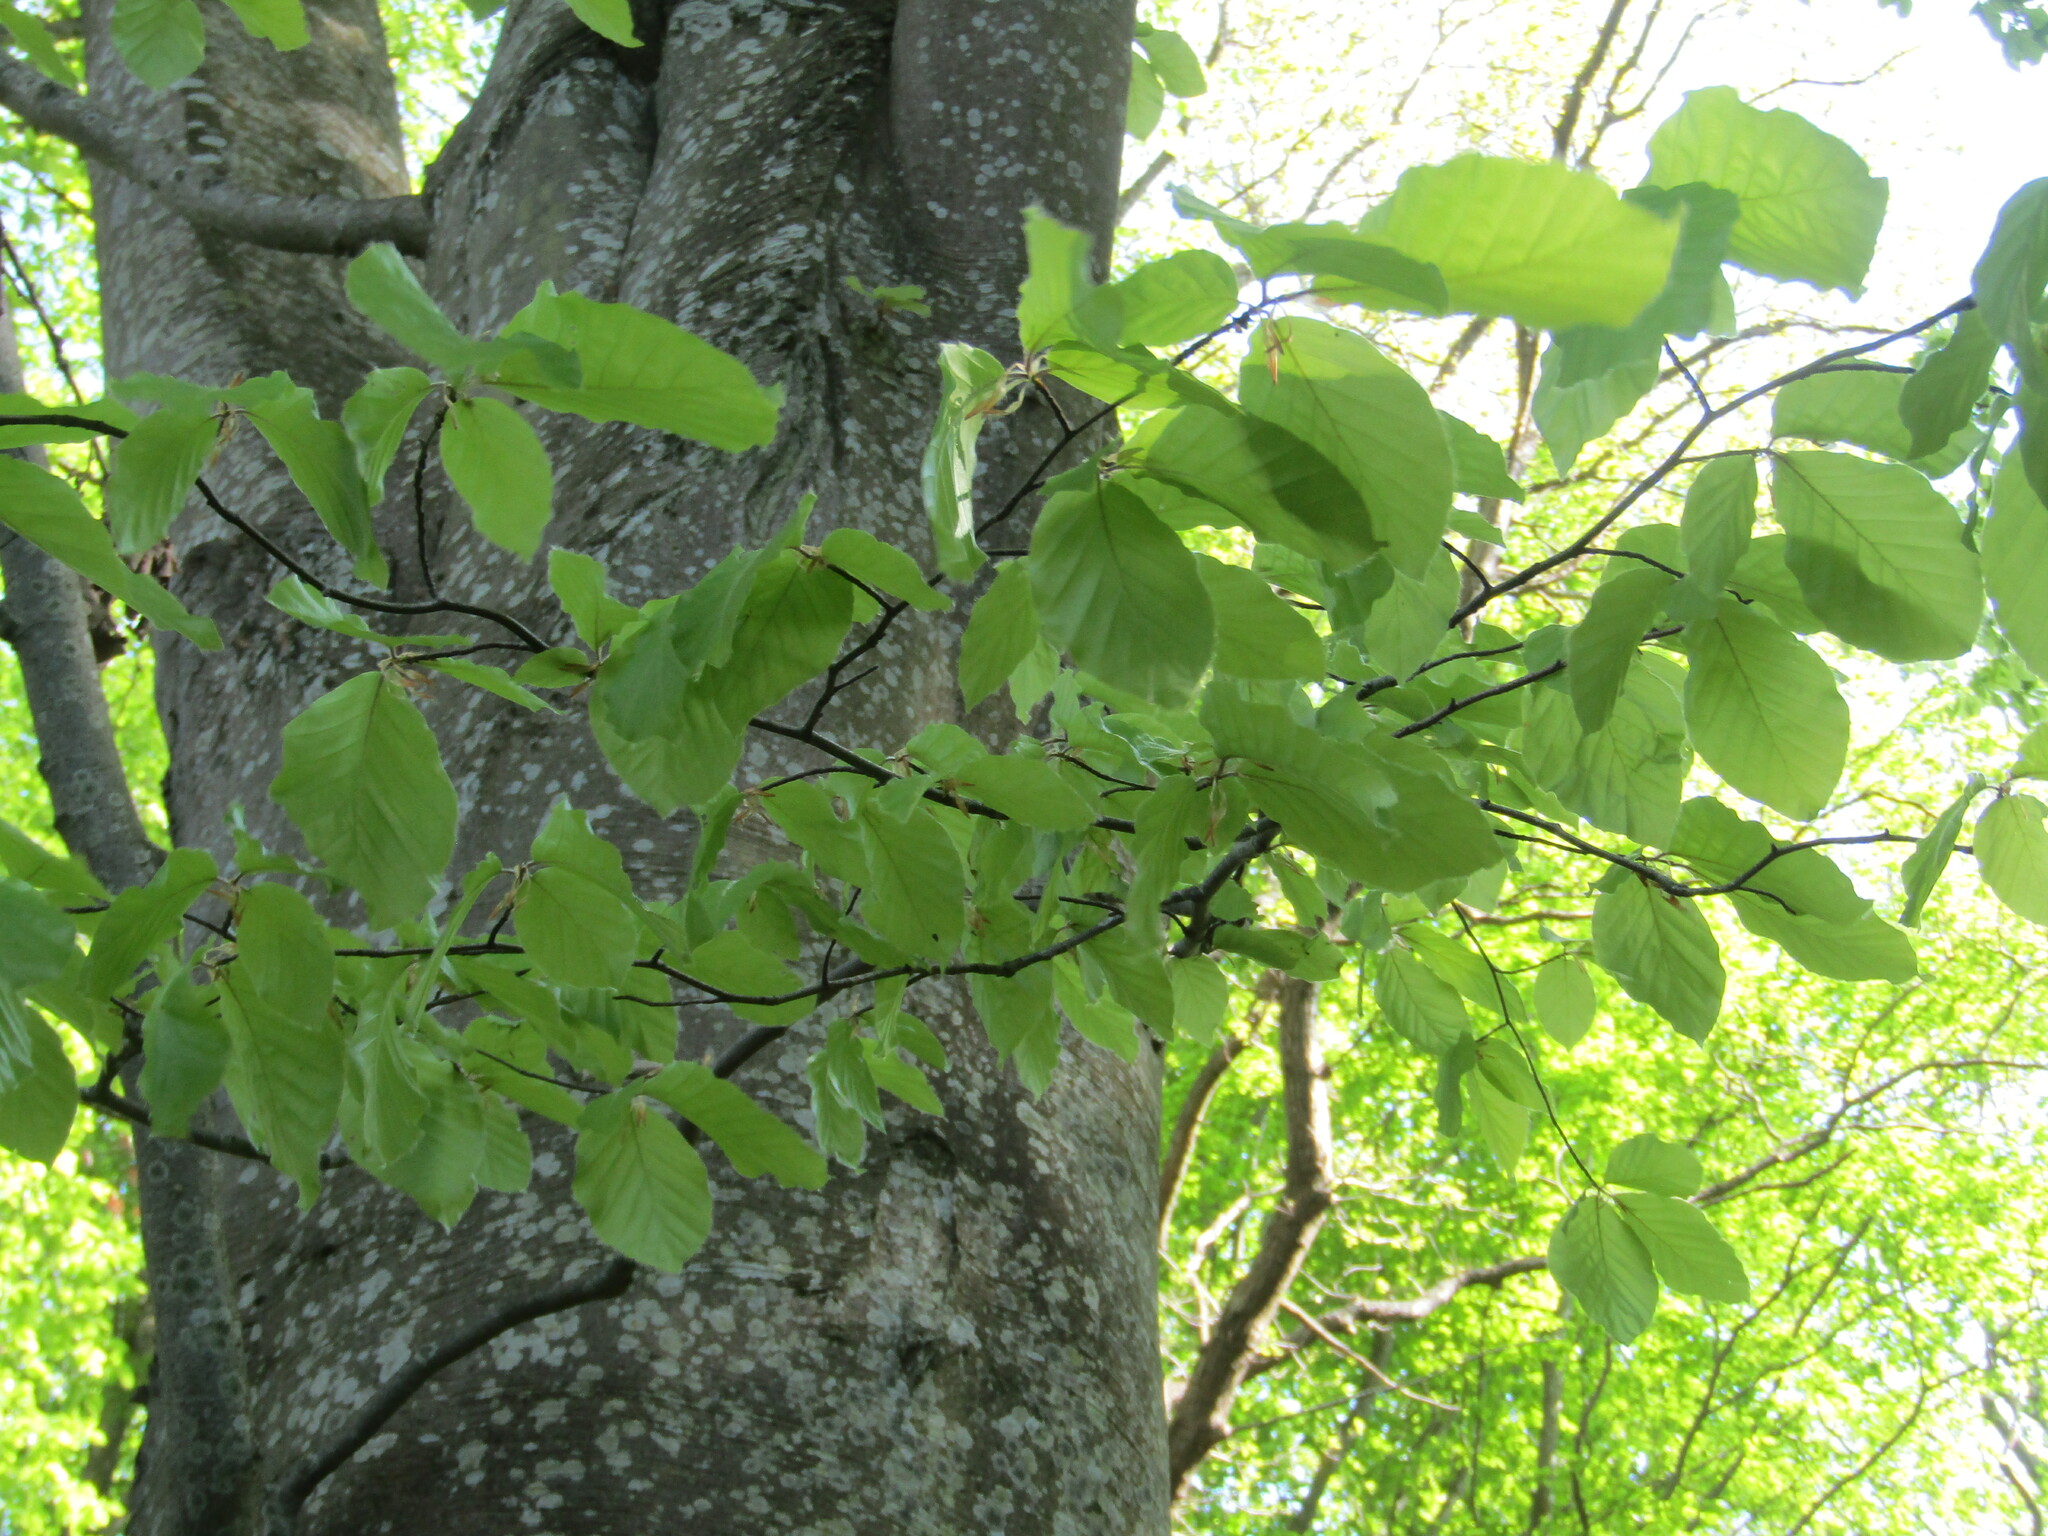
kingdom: Plantae
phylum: Tracheophyta
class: Magnoliopsida
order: Fagales
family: Fagaceae
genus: Fagus
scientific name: Fagus sylvatica
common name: Beech
